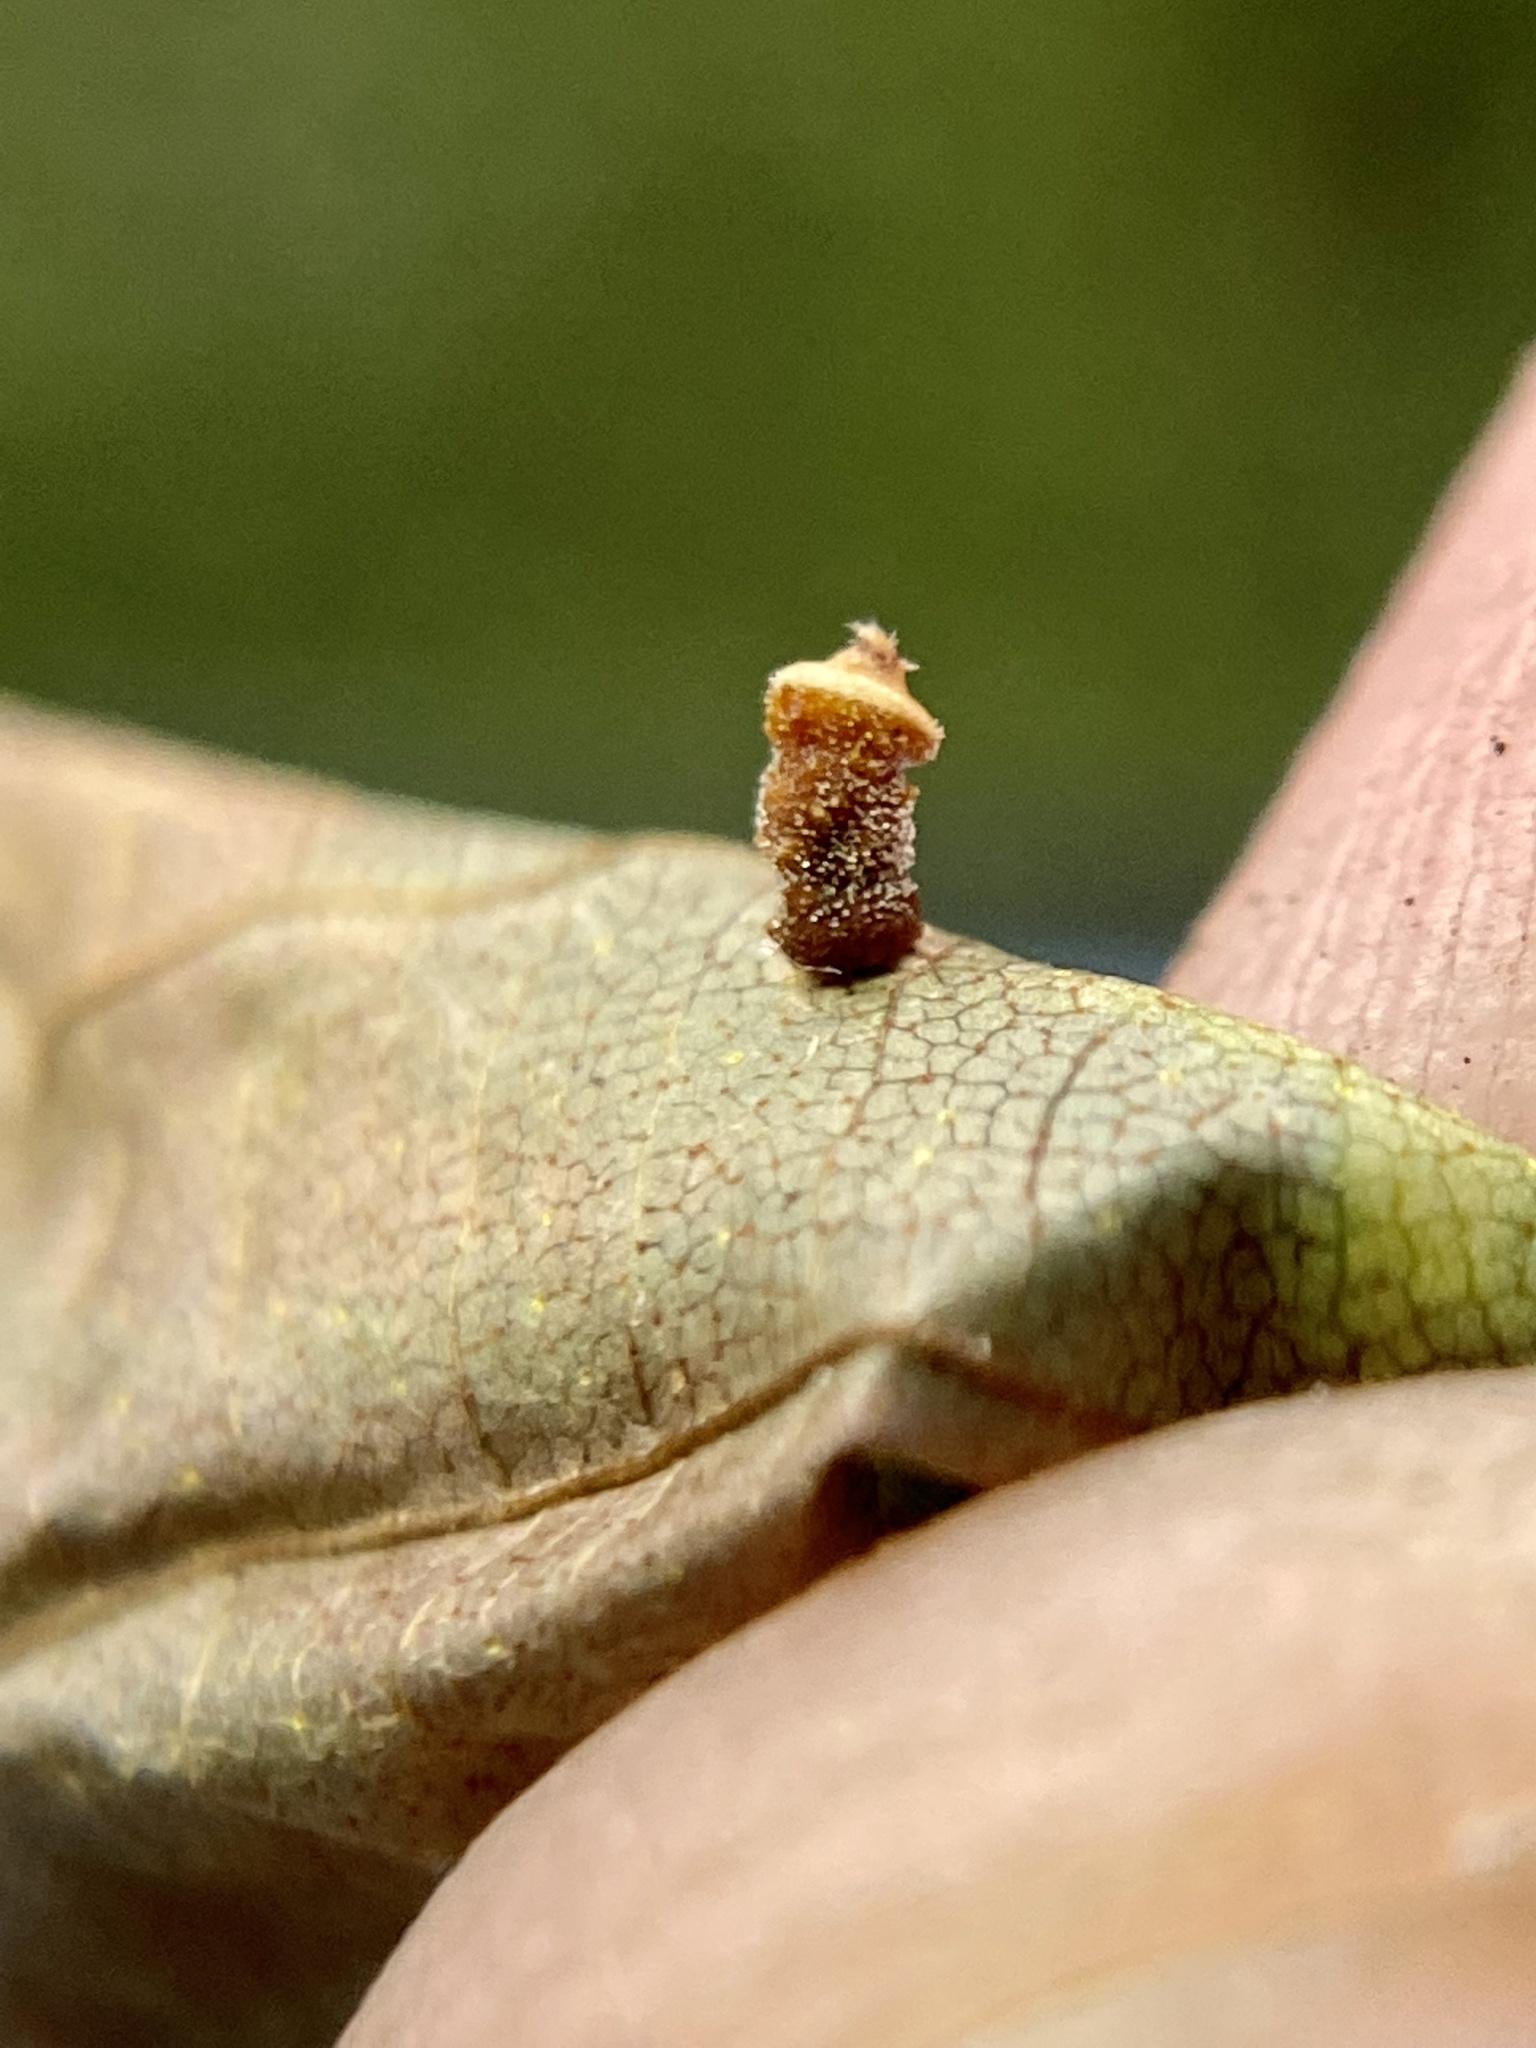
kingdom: Animalia
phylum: Arthropoda
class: Insecta
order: Diptera
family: Cecidomyiidae
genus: Caryomyia
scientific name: Caryomyia tuberidolium
